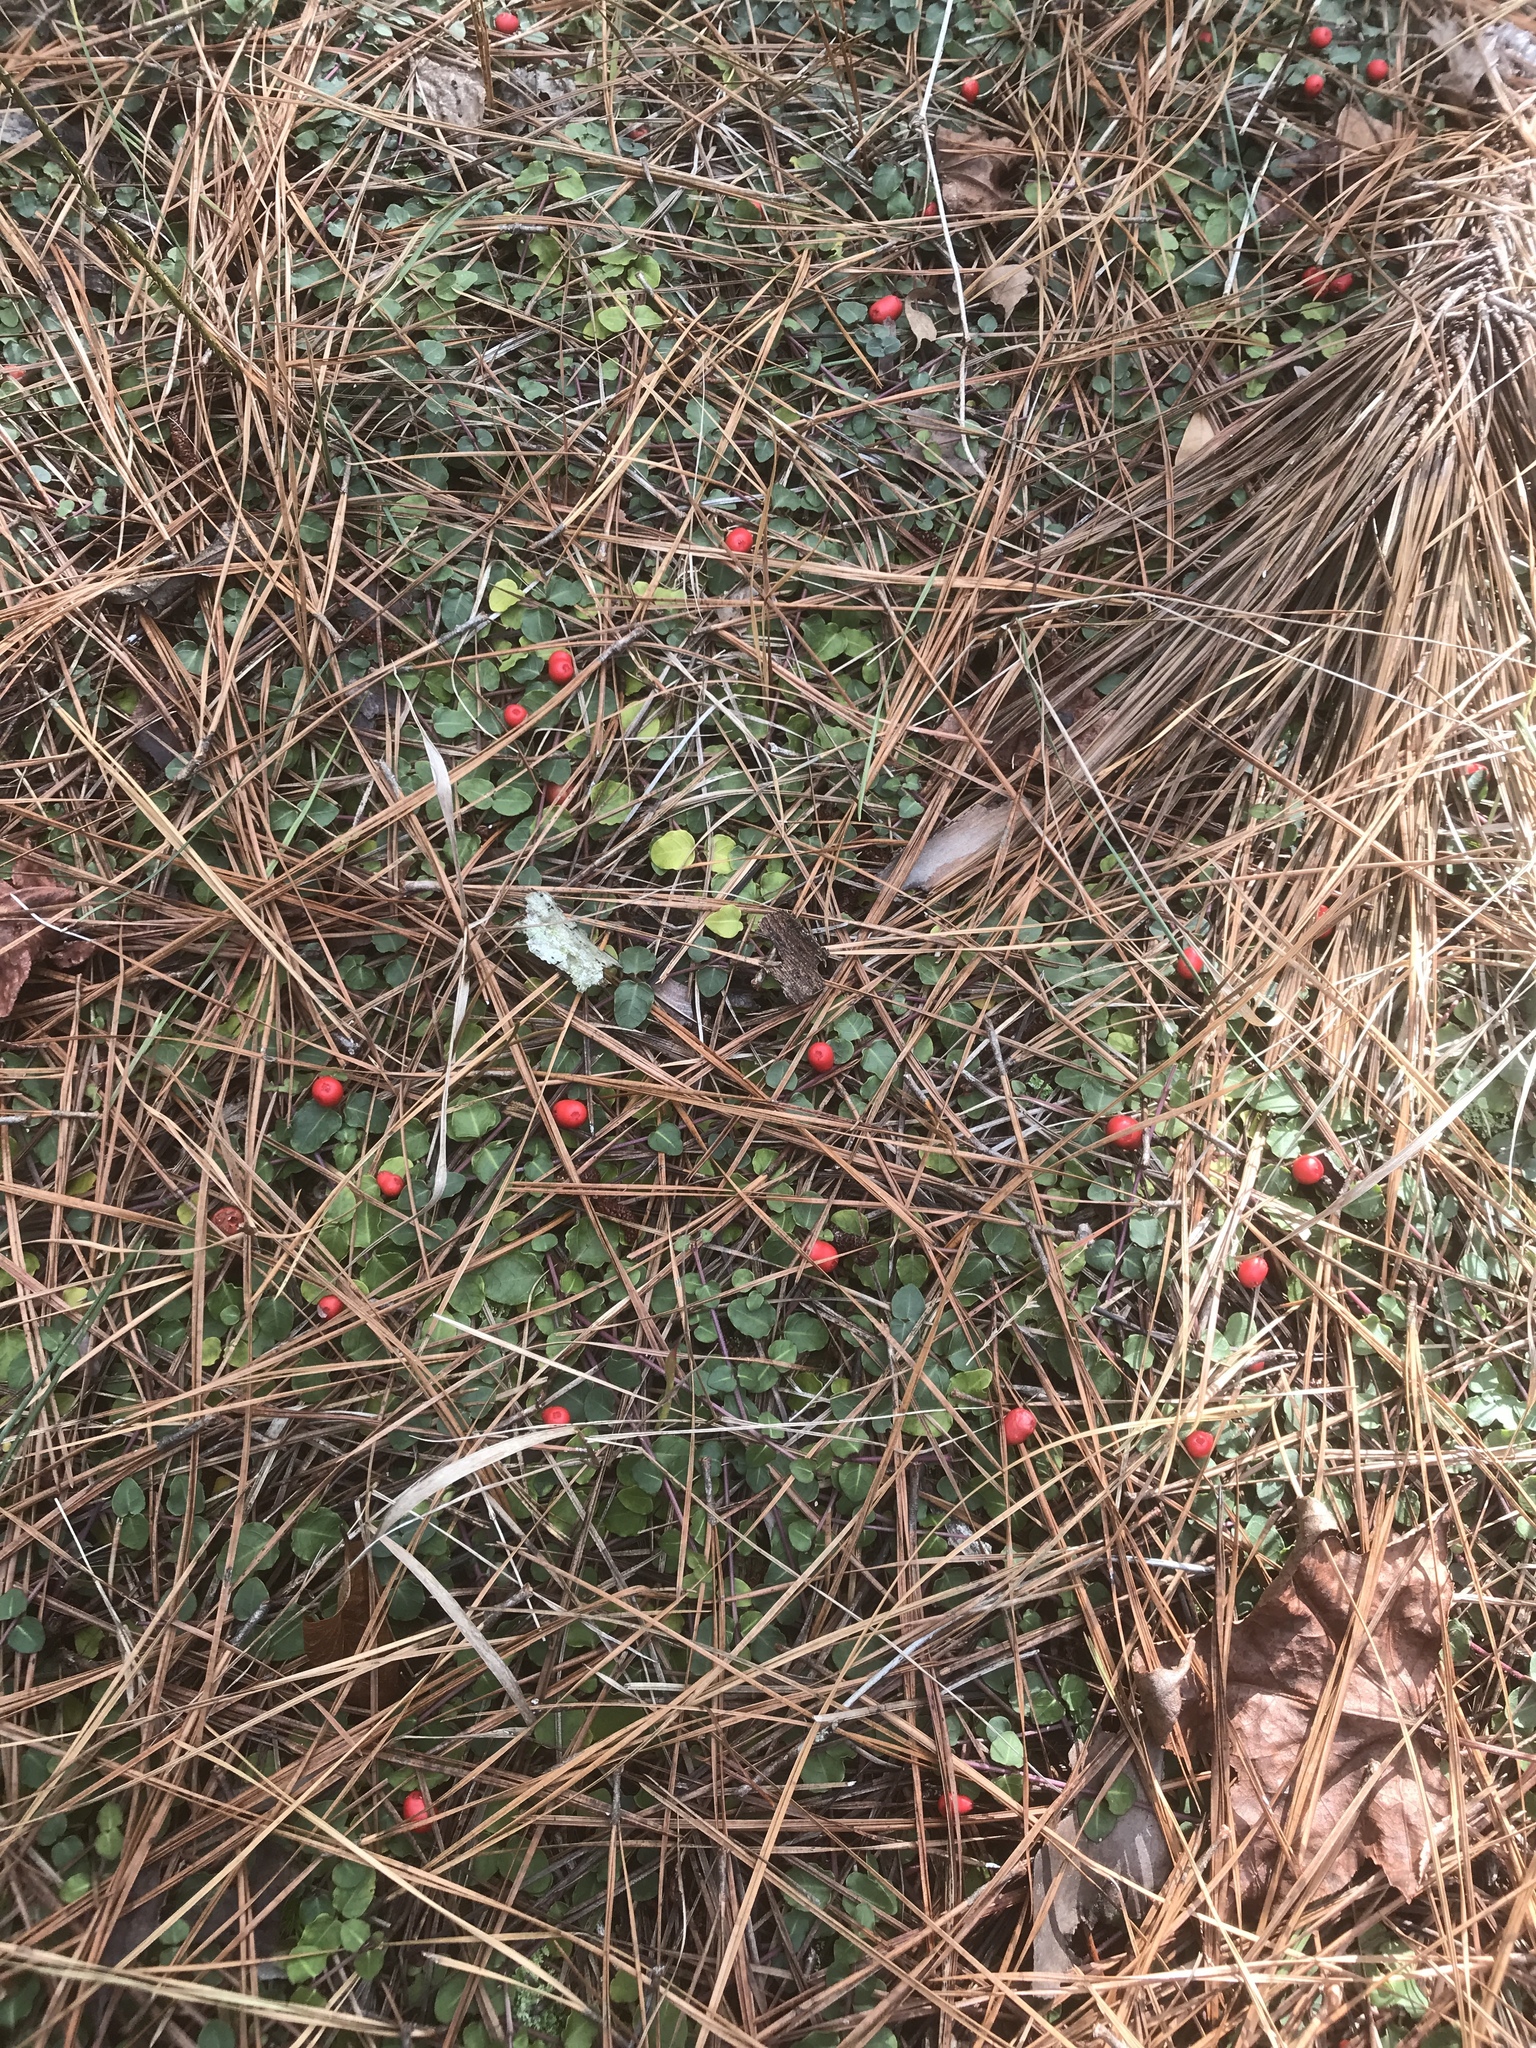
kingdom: Plantae
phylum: Tracheophyta
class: Magnoliopsida
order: Gentianales
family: Rubiaceae
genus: Mitchella
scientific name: Mitchella repens
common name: Partridge-berry
